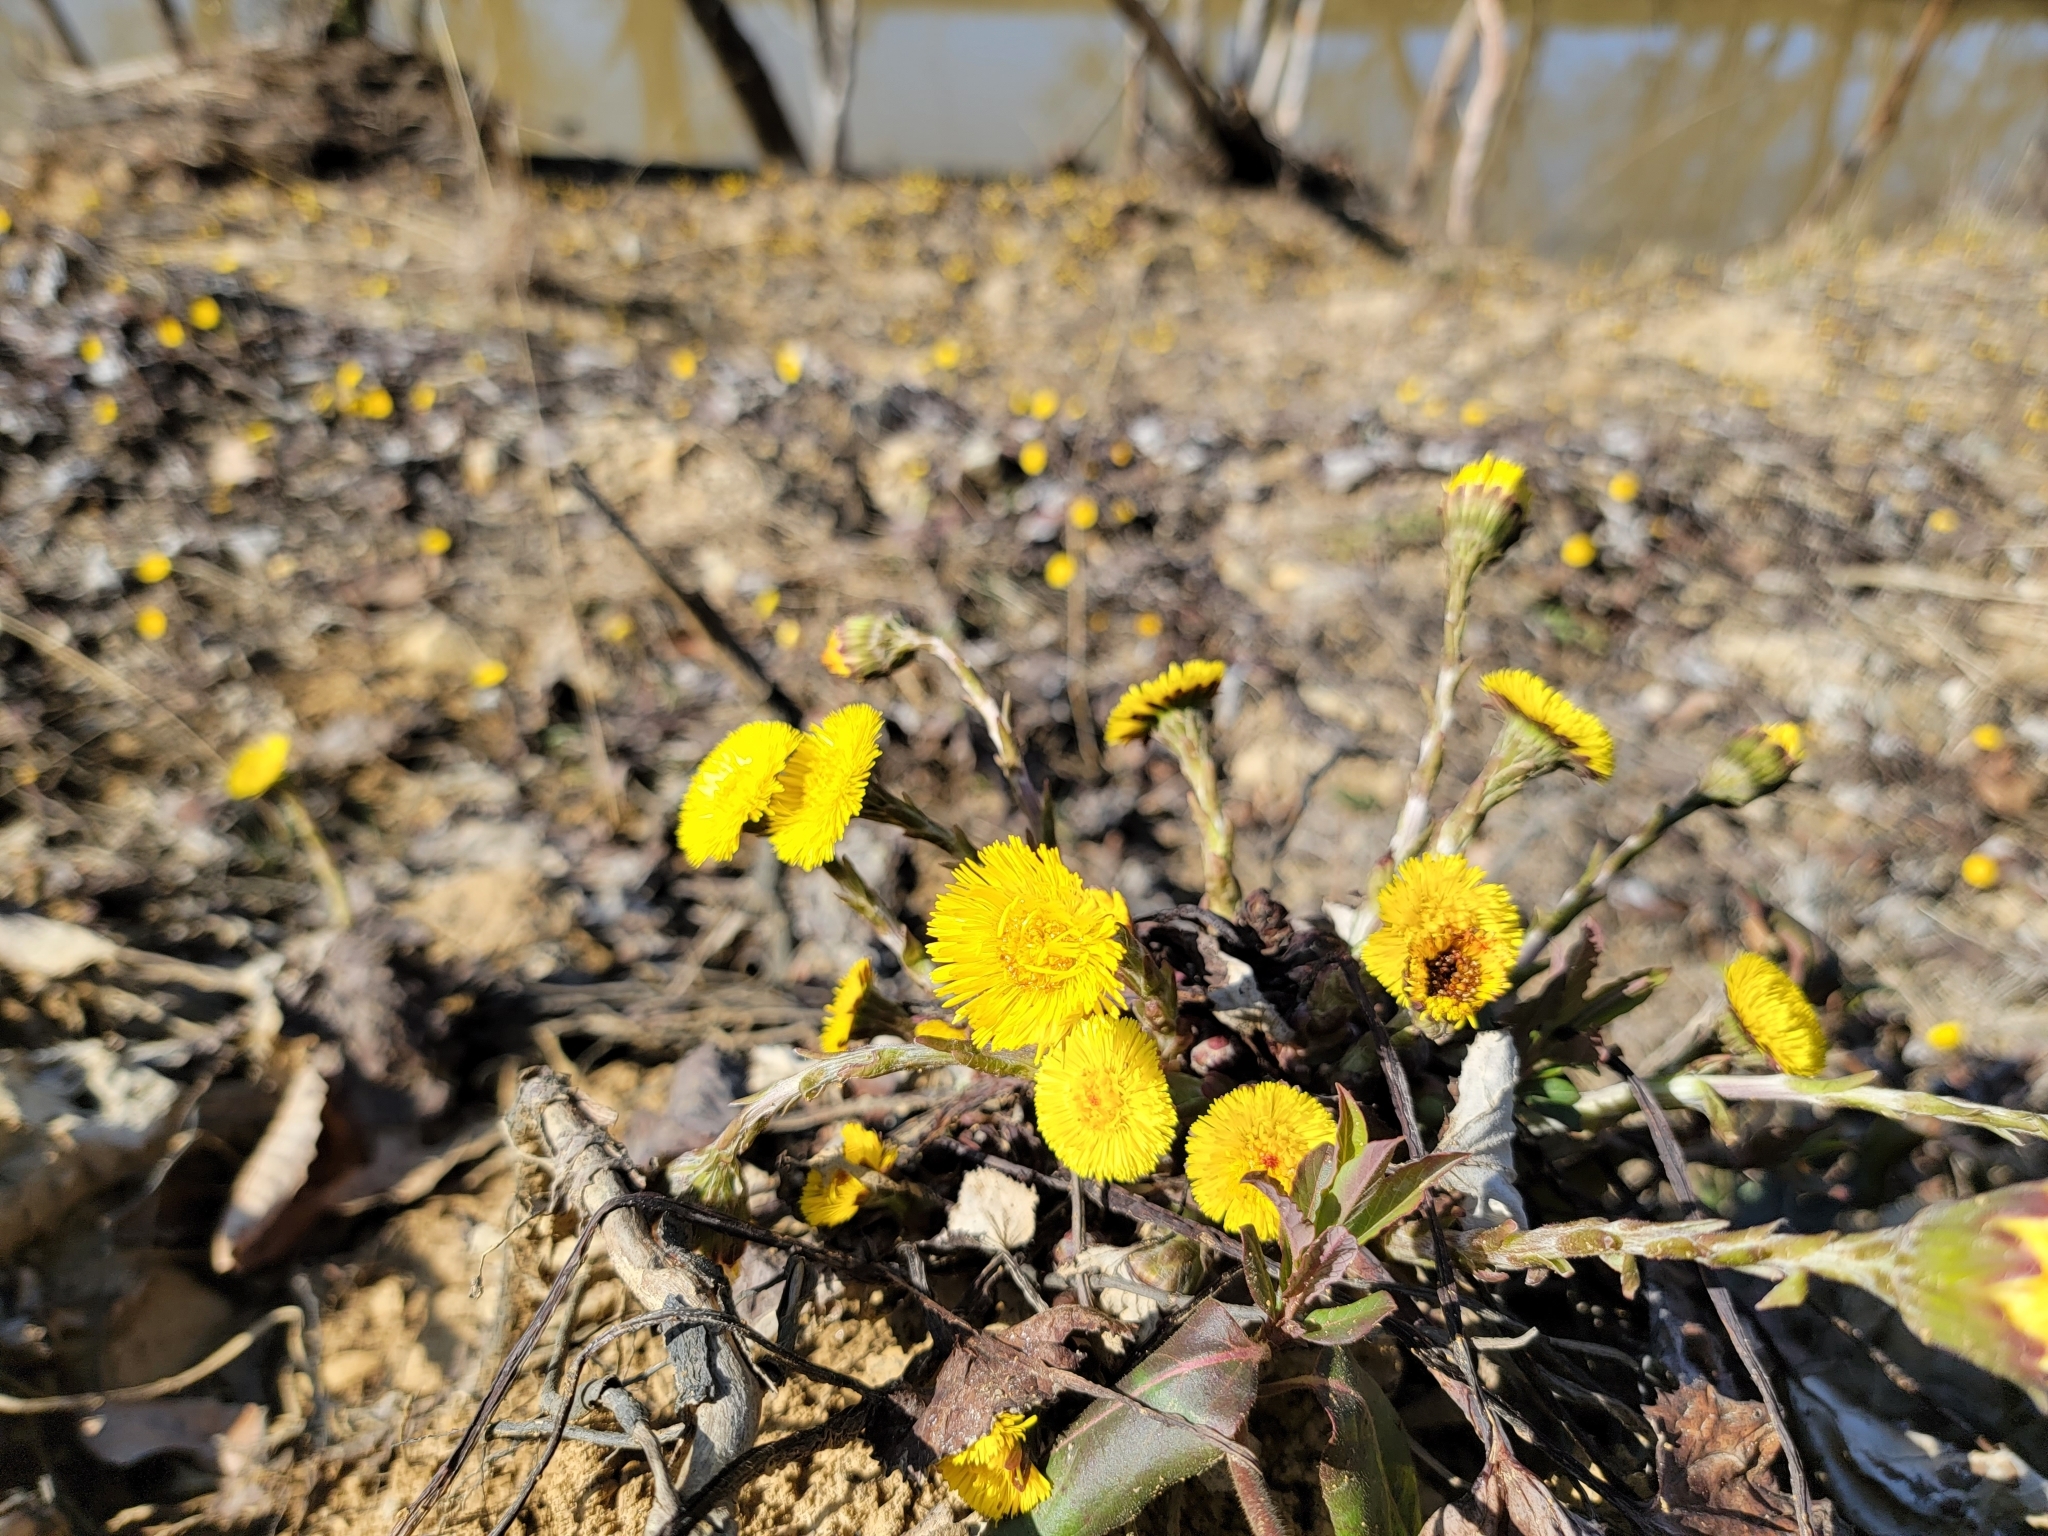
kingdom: Plantae
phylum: Tracheophyta
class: Magnoliopsida
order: Asterales
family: Asteraceae
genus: Tussilago
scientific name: Tussilago farfara
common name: Coltsfoot
